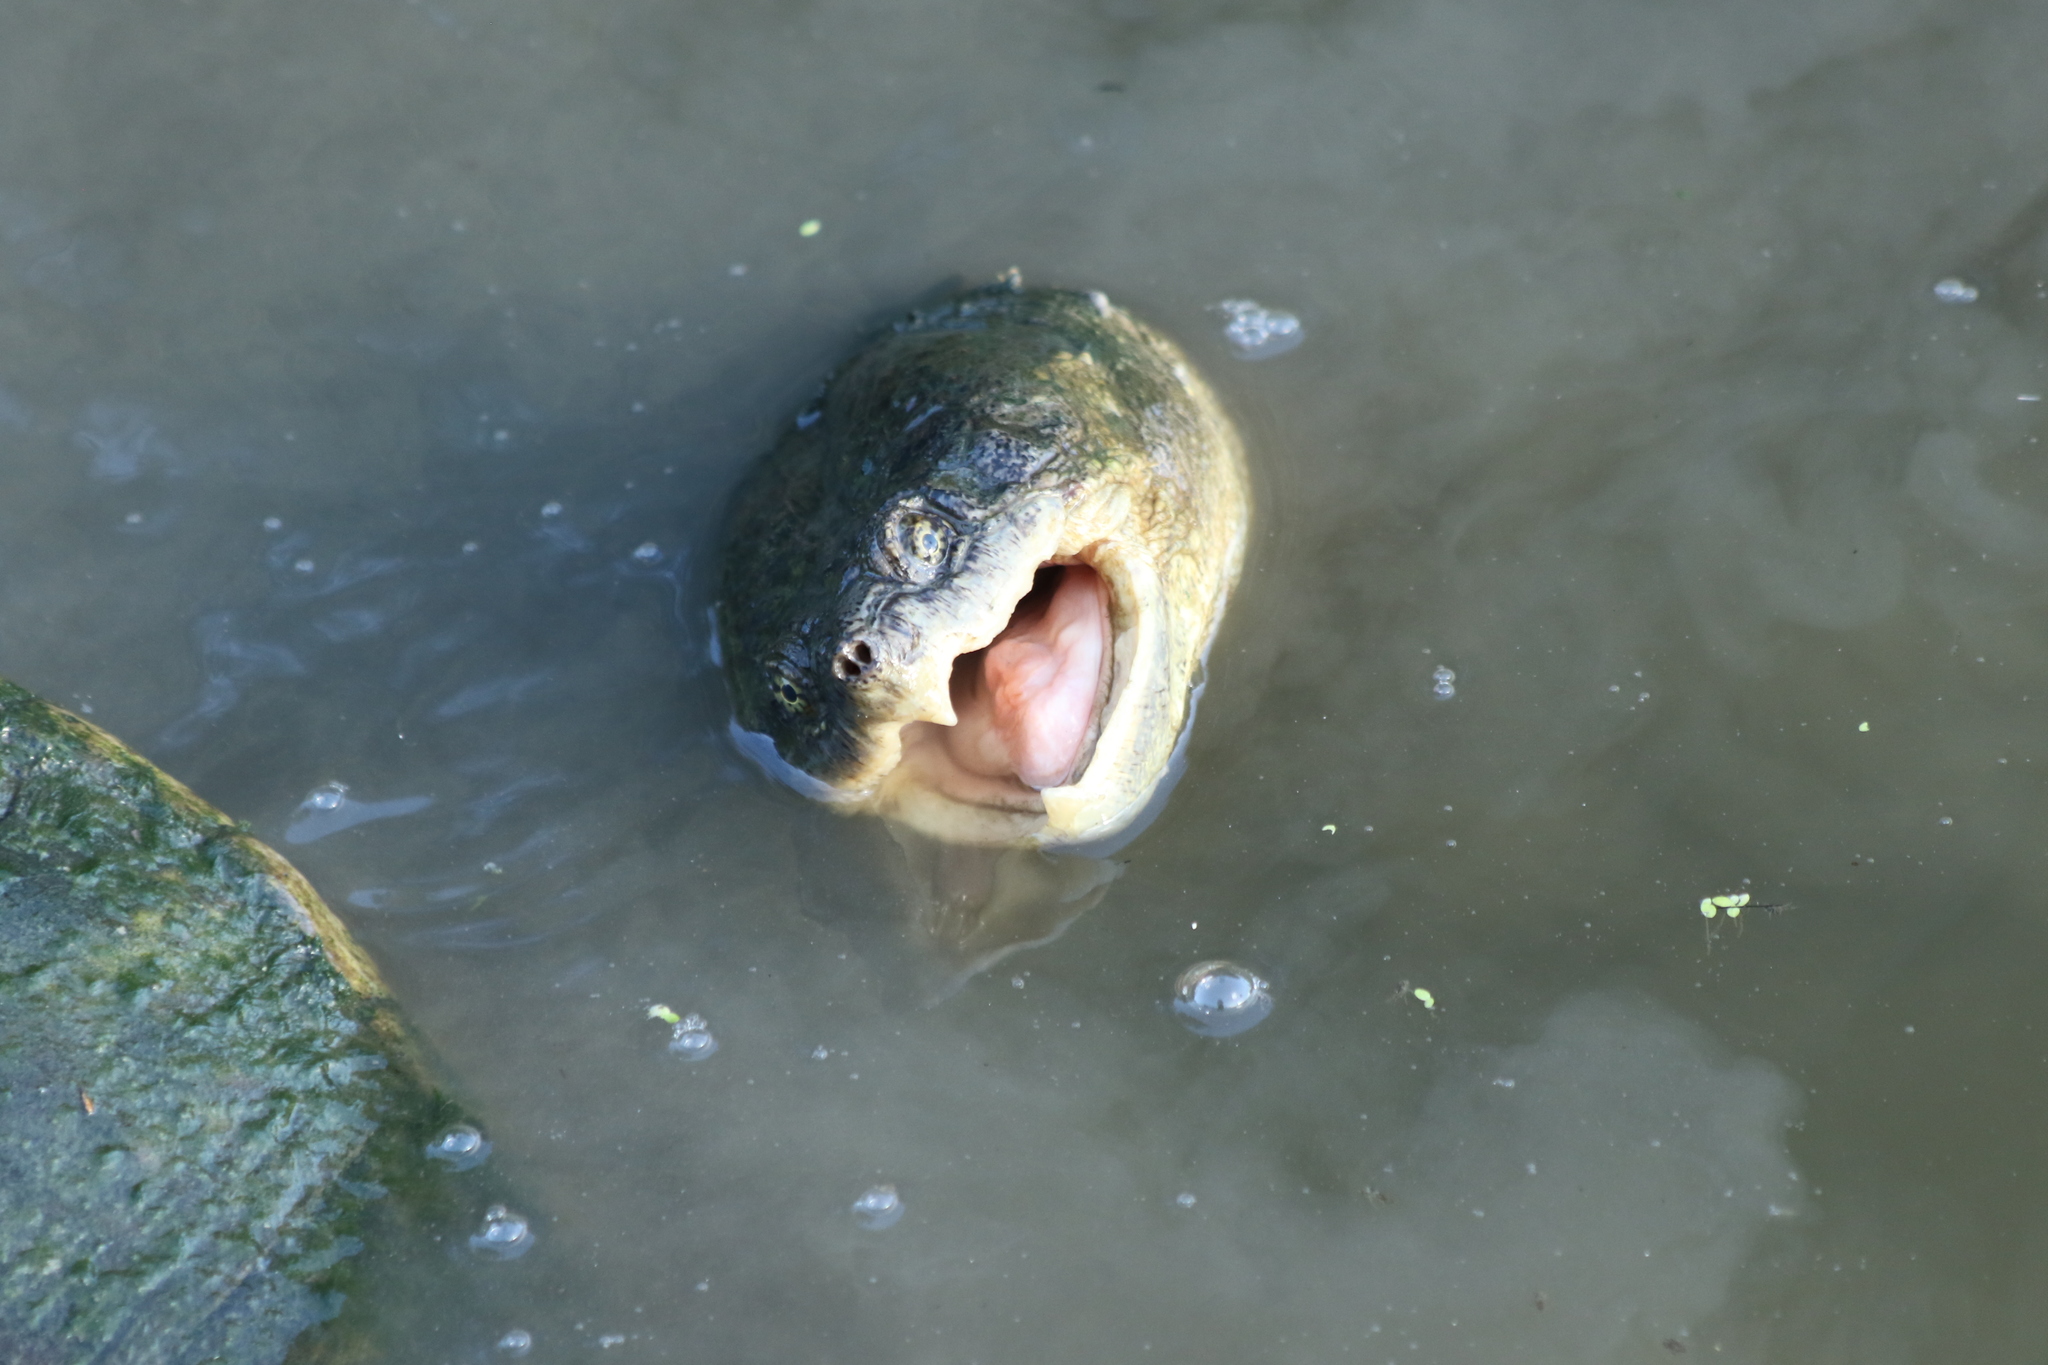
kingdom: Animalia
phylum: Chordata
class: Testudines
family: Chelydridae
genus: Chelydra
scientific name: Chelydra serpentina
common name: Common snapping turtle
